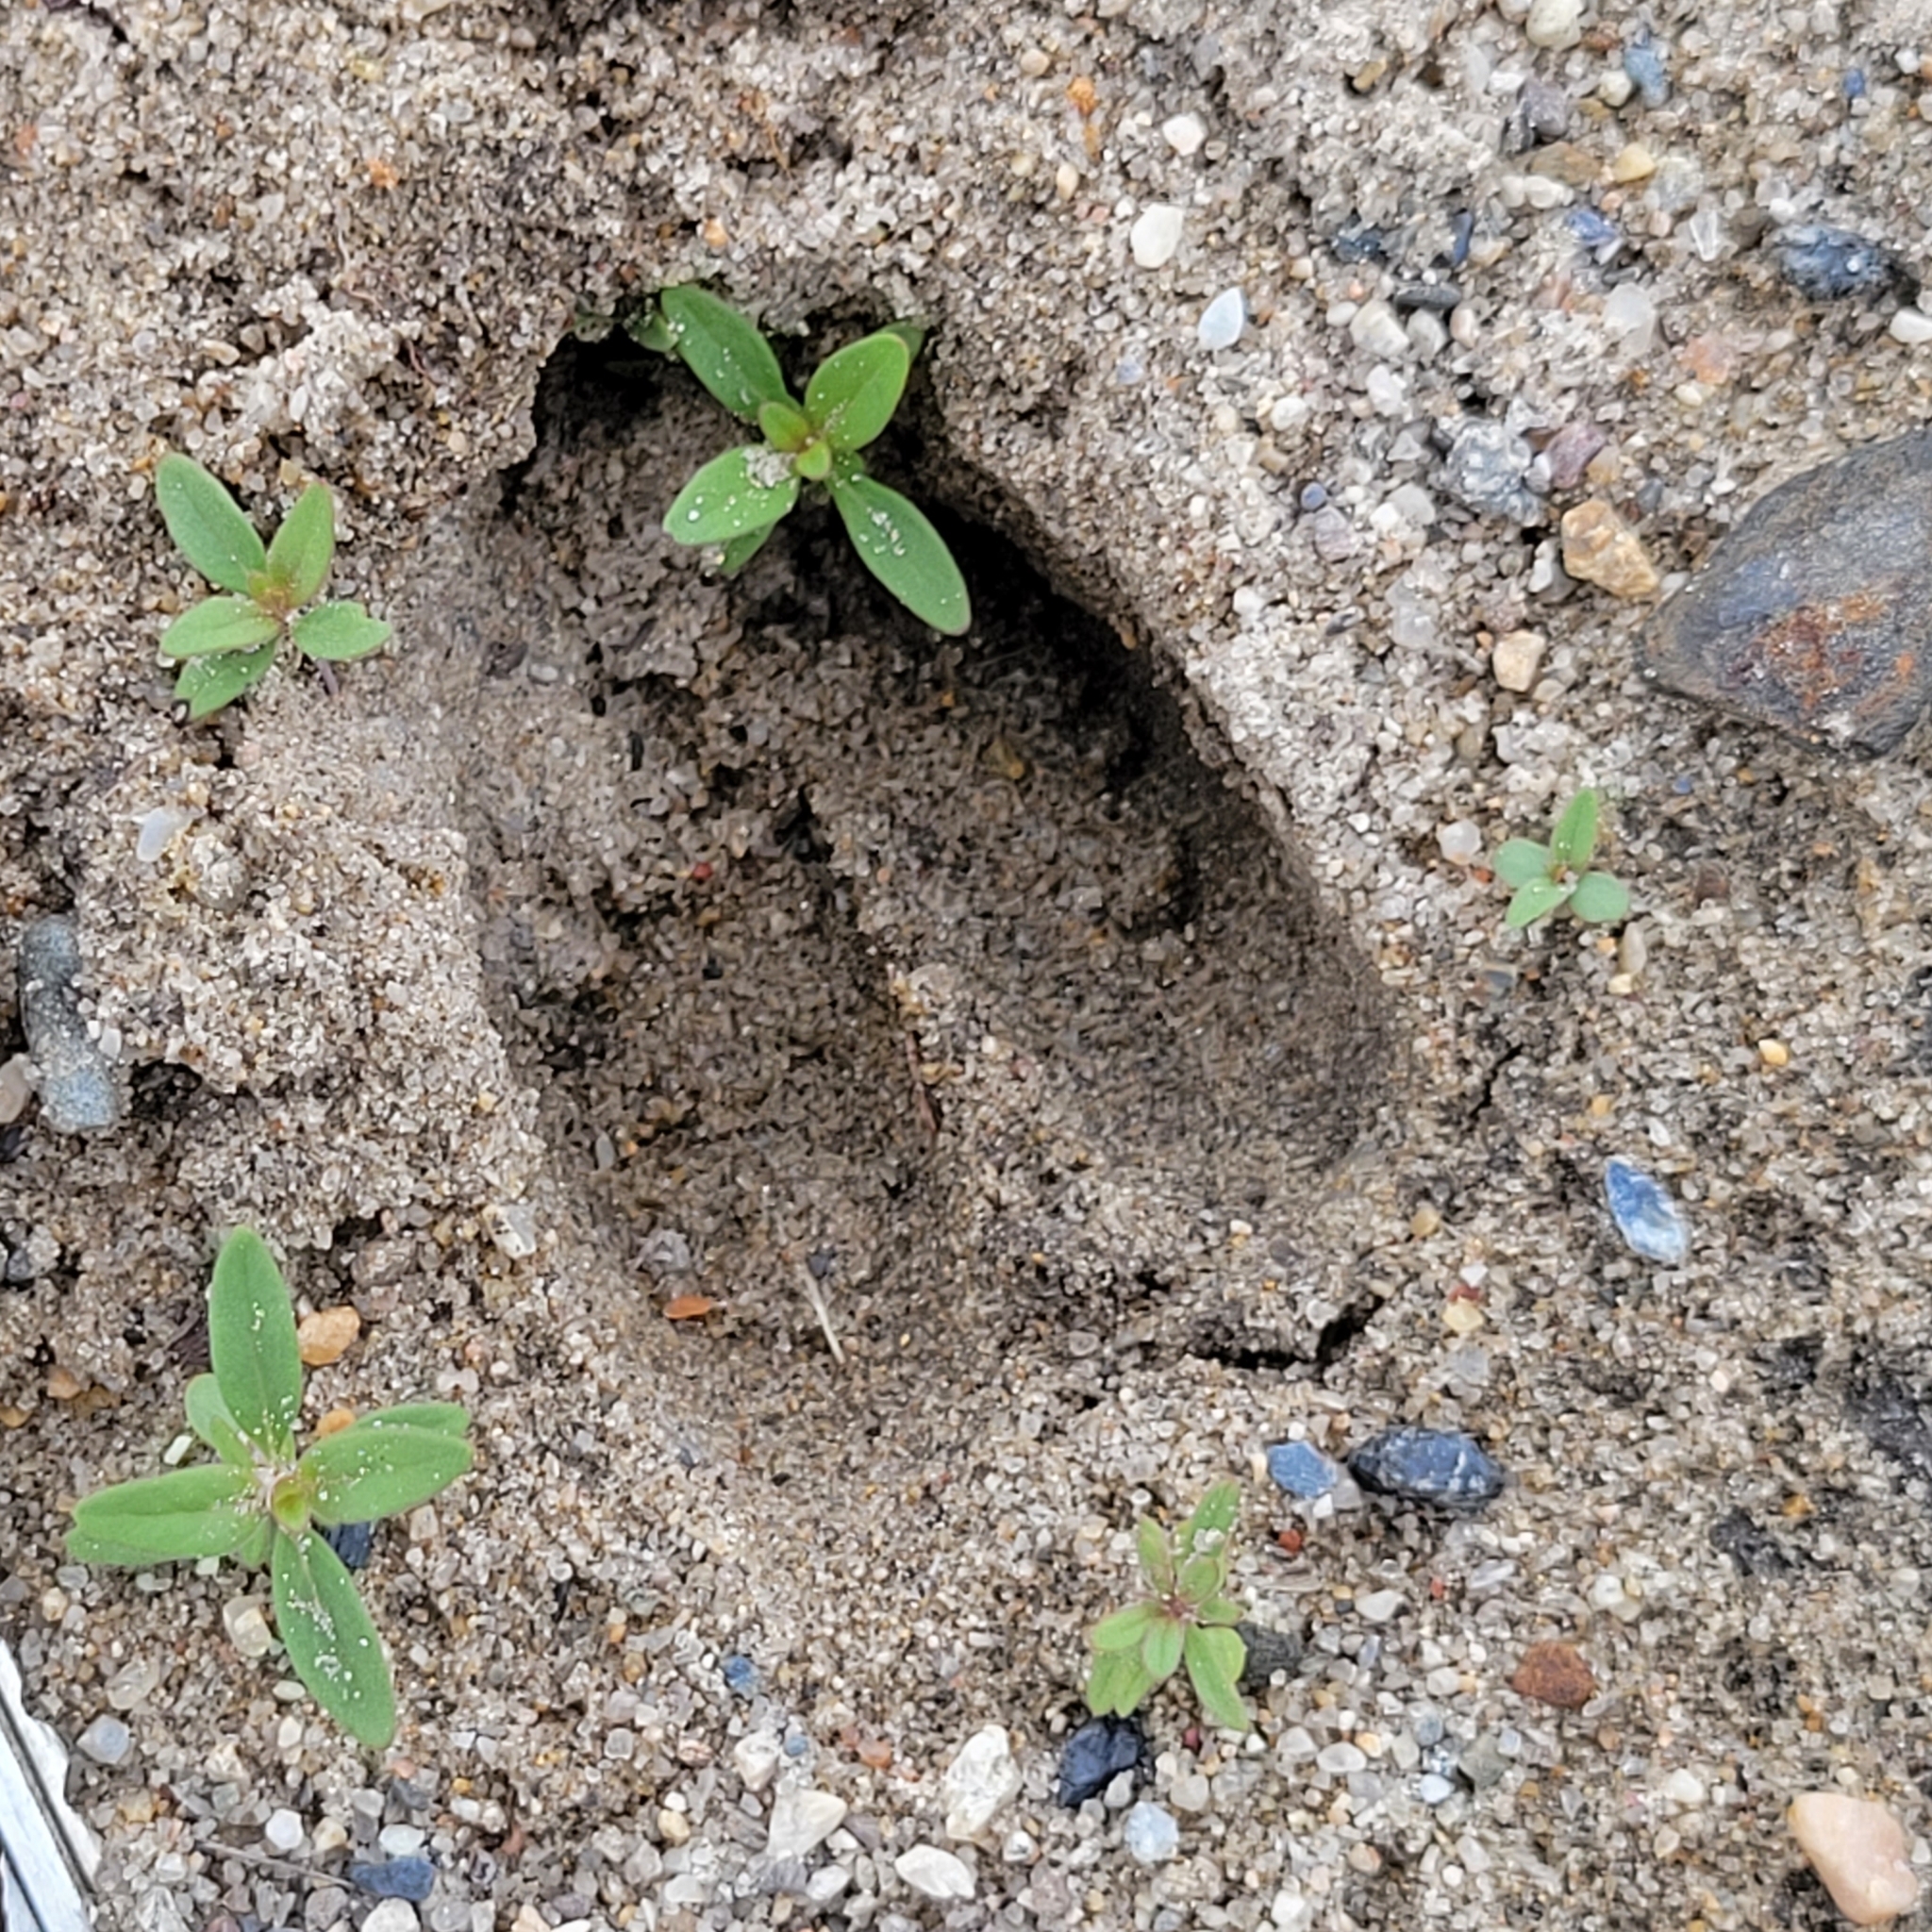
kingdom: Animalia
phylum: Chordata
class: Mammalia
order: Artiodactyla
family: Cervidae
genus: Odocoileus
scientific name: Odocoileus virginianus
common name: White-tailed deer
